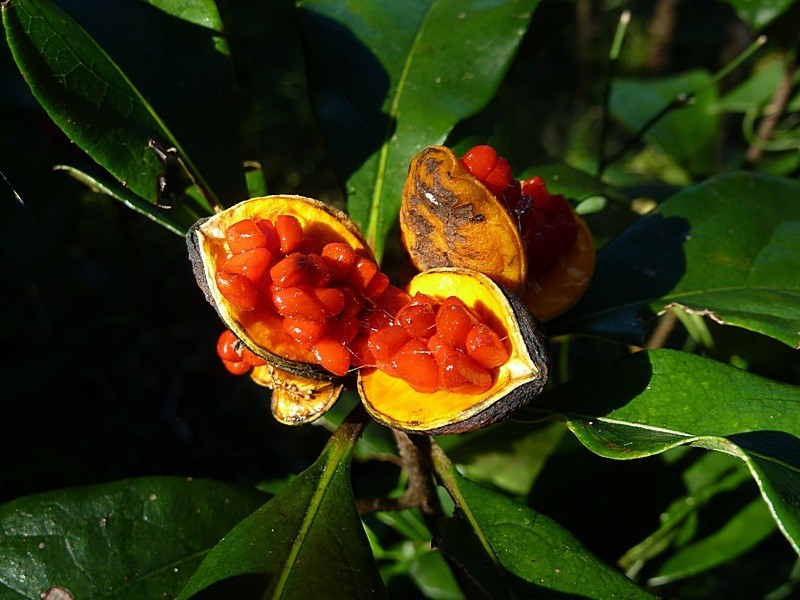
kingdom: Plantae
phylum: Tracheophyta
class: Magnoliopsida
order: Apiales
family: Pittosporaceae
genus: Pittosporum
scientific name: Pittosporum revolutum
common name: Brisbane-laurel
